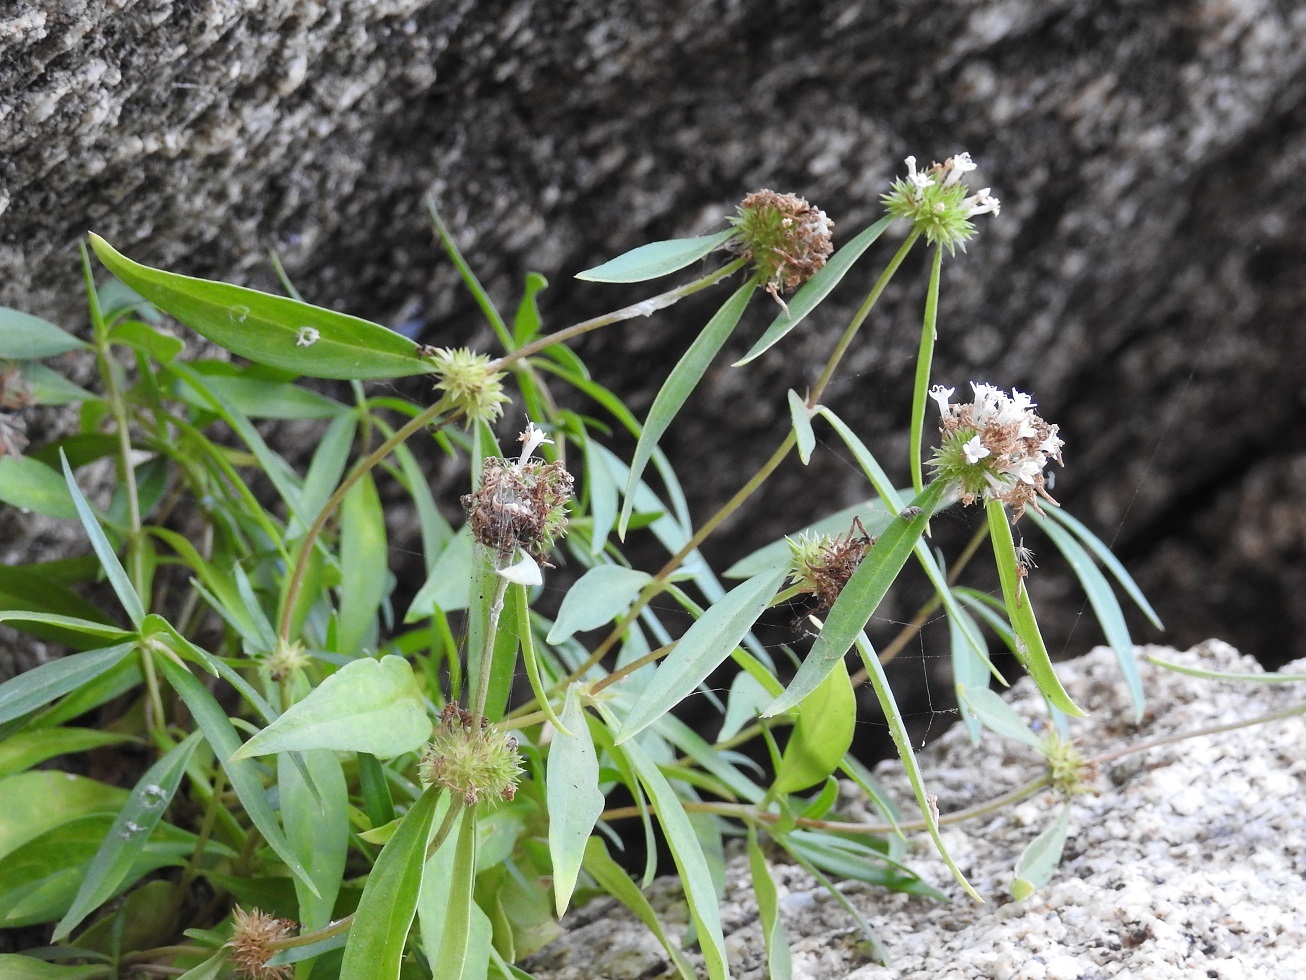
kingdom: Plantae
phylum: Tracheophyta
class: Magnoliopsida
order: Gentianales
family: Rubiaceae
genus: Spermacoce
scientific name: Spermacoce verticillata
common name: Shrubby false buttonweed
